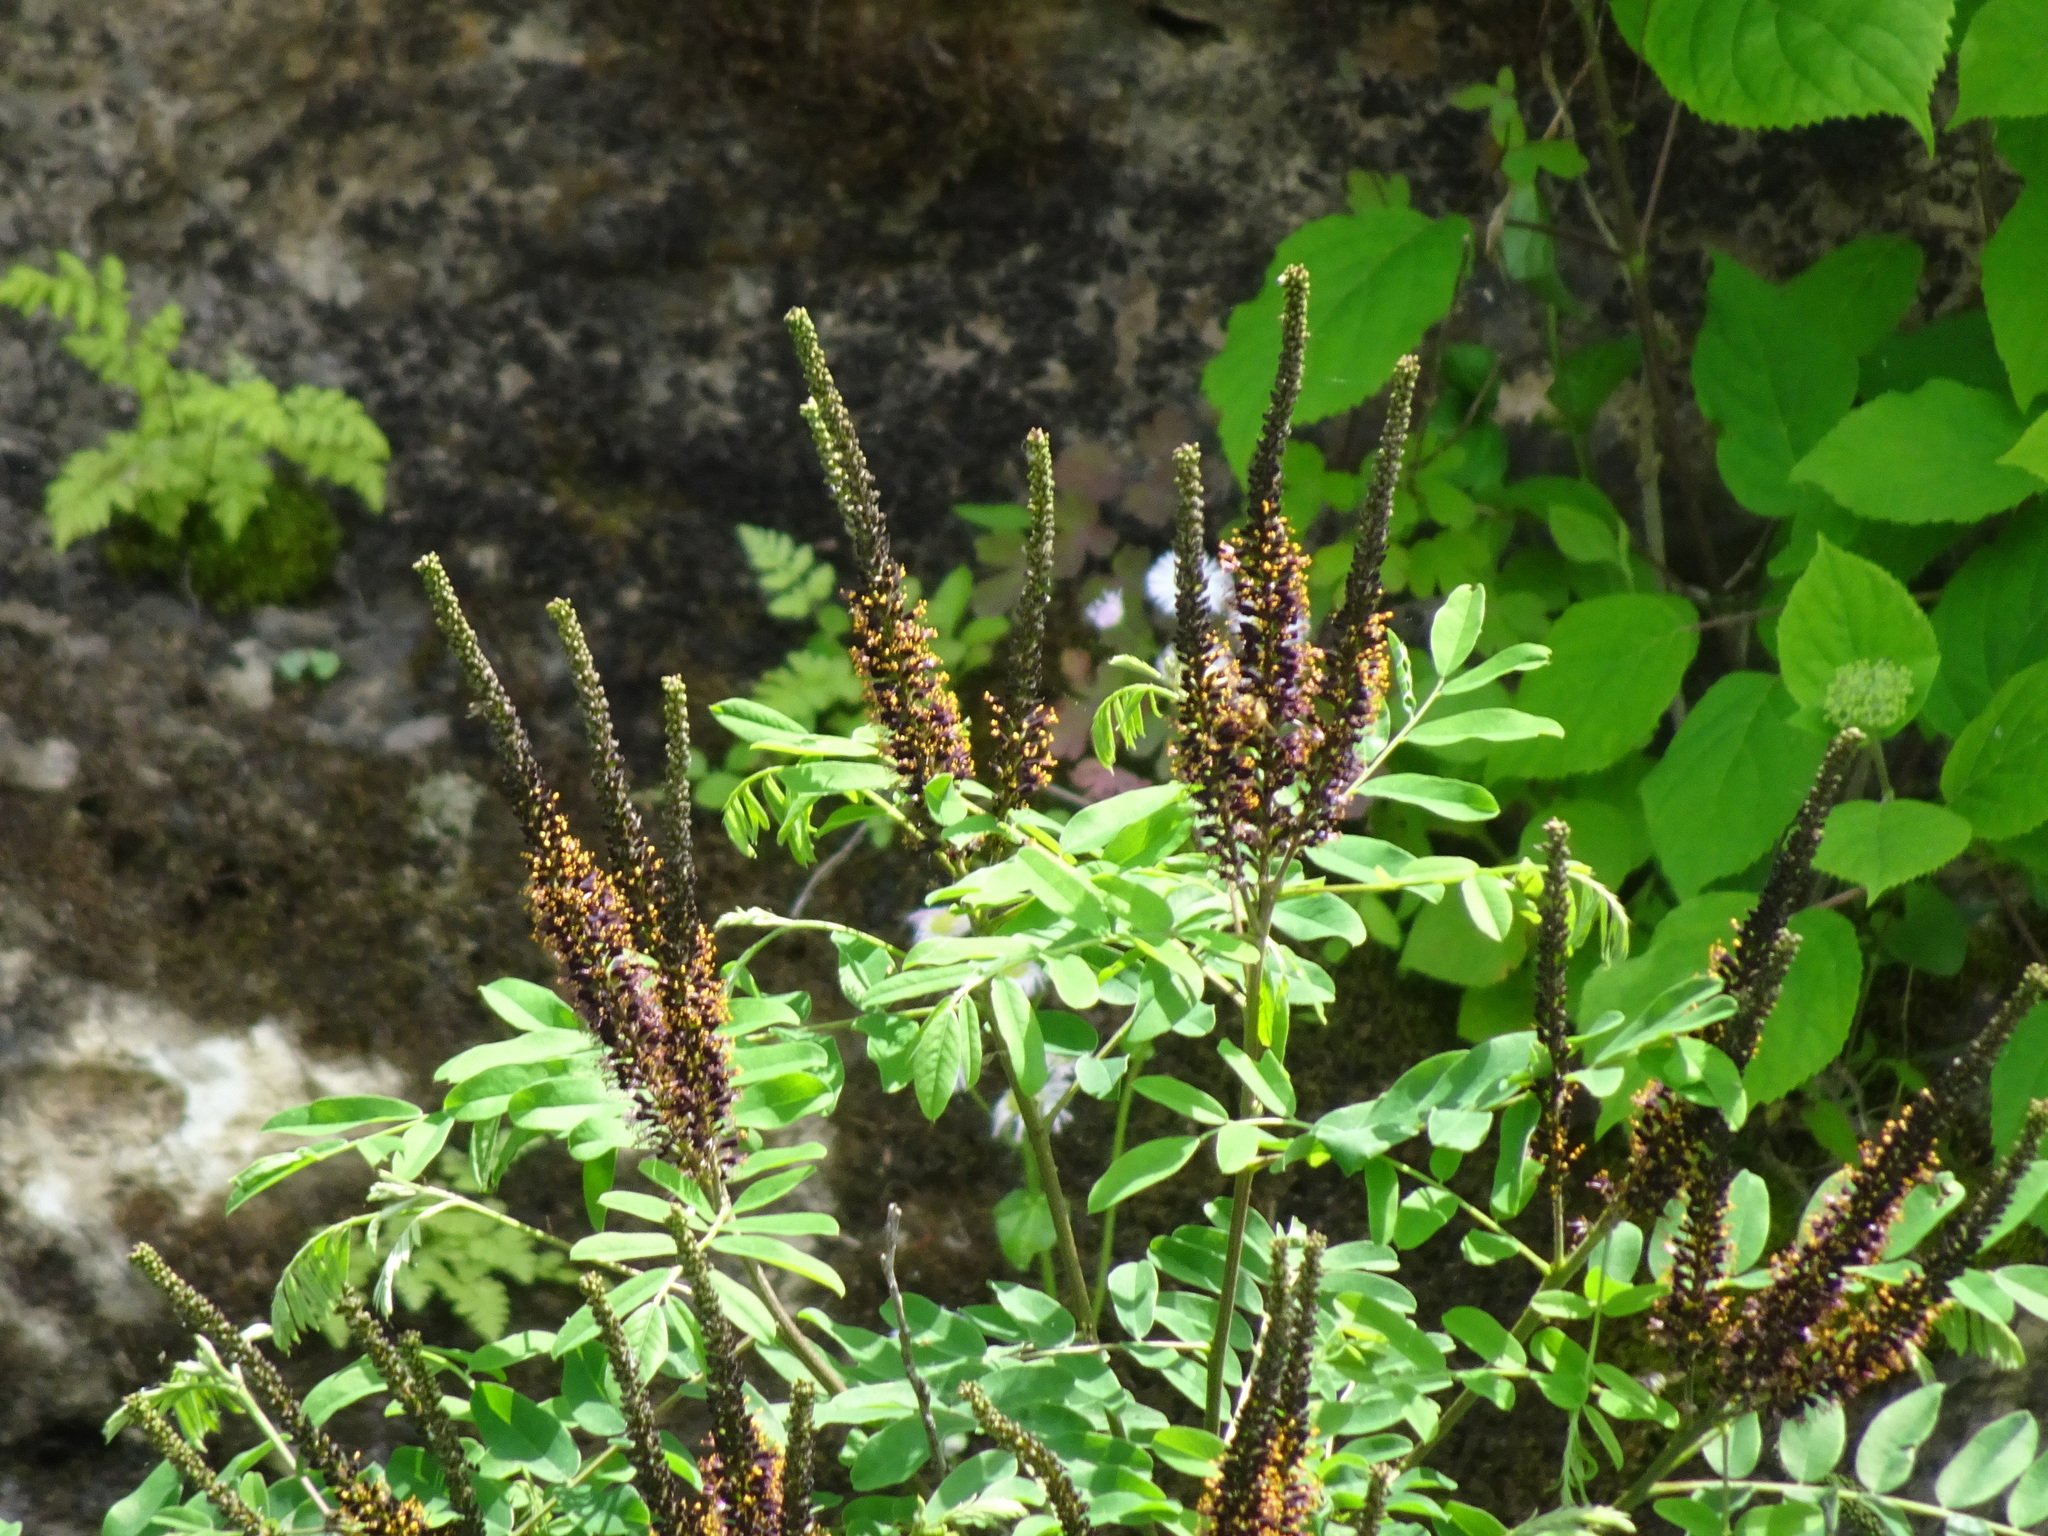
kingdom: Plantae
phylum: Tracheophyta
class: Magnoliopsida
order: Fabales
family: Fabaceae
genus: Amorpha
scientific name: Amorpha fruticosa
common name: False indigo
